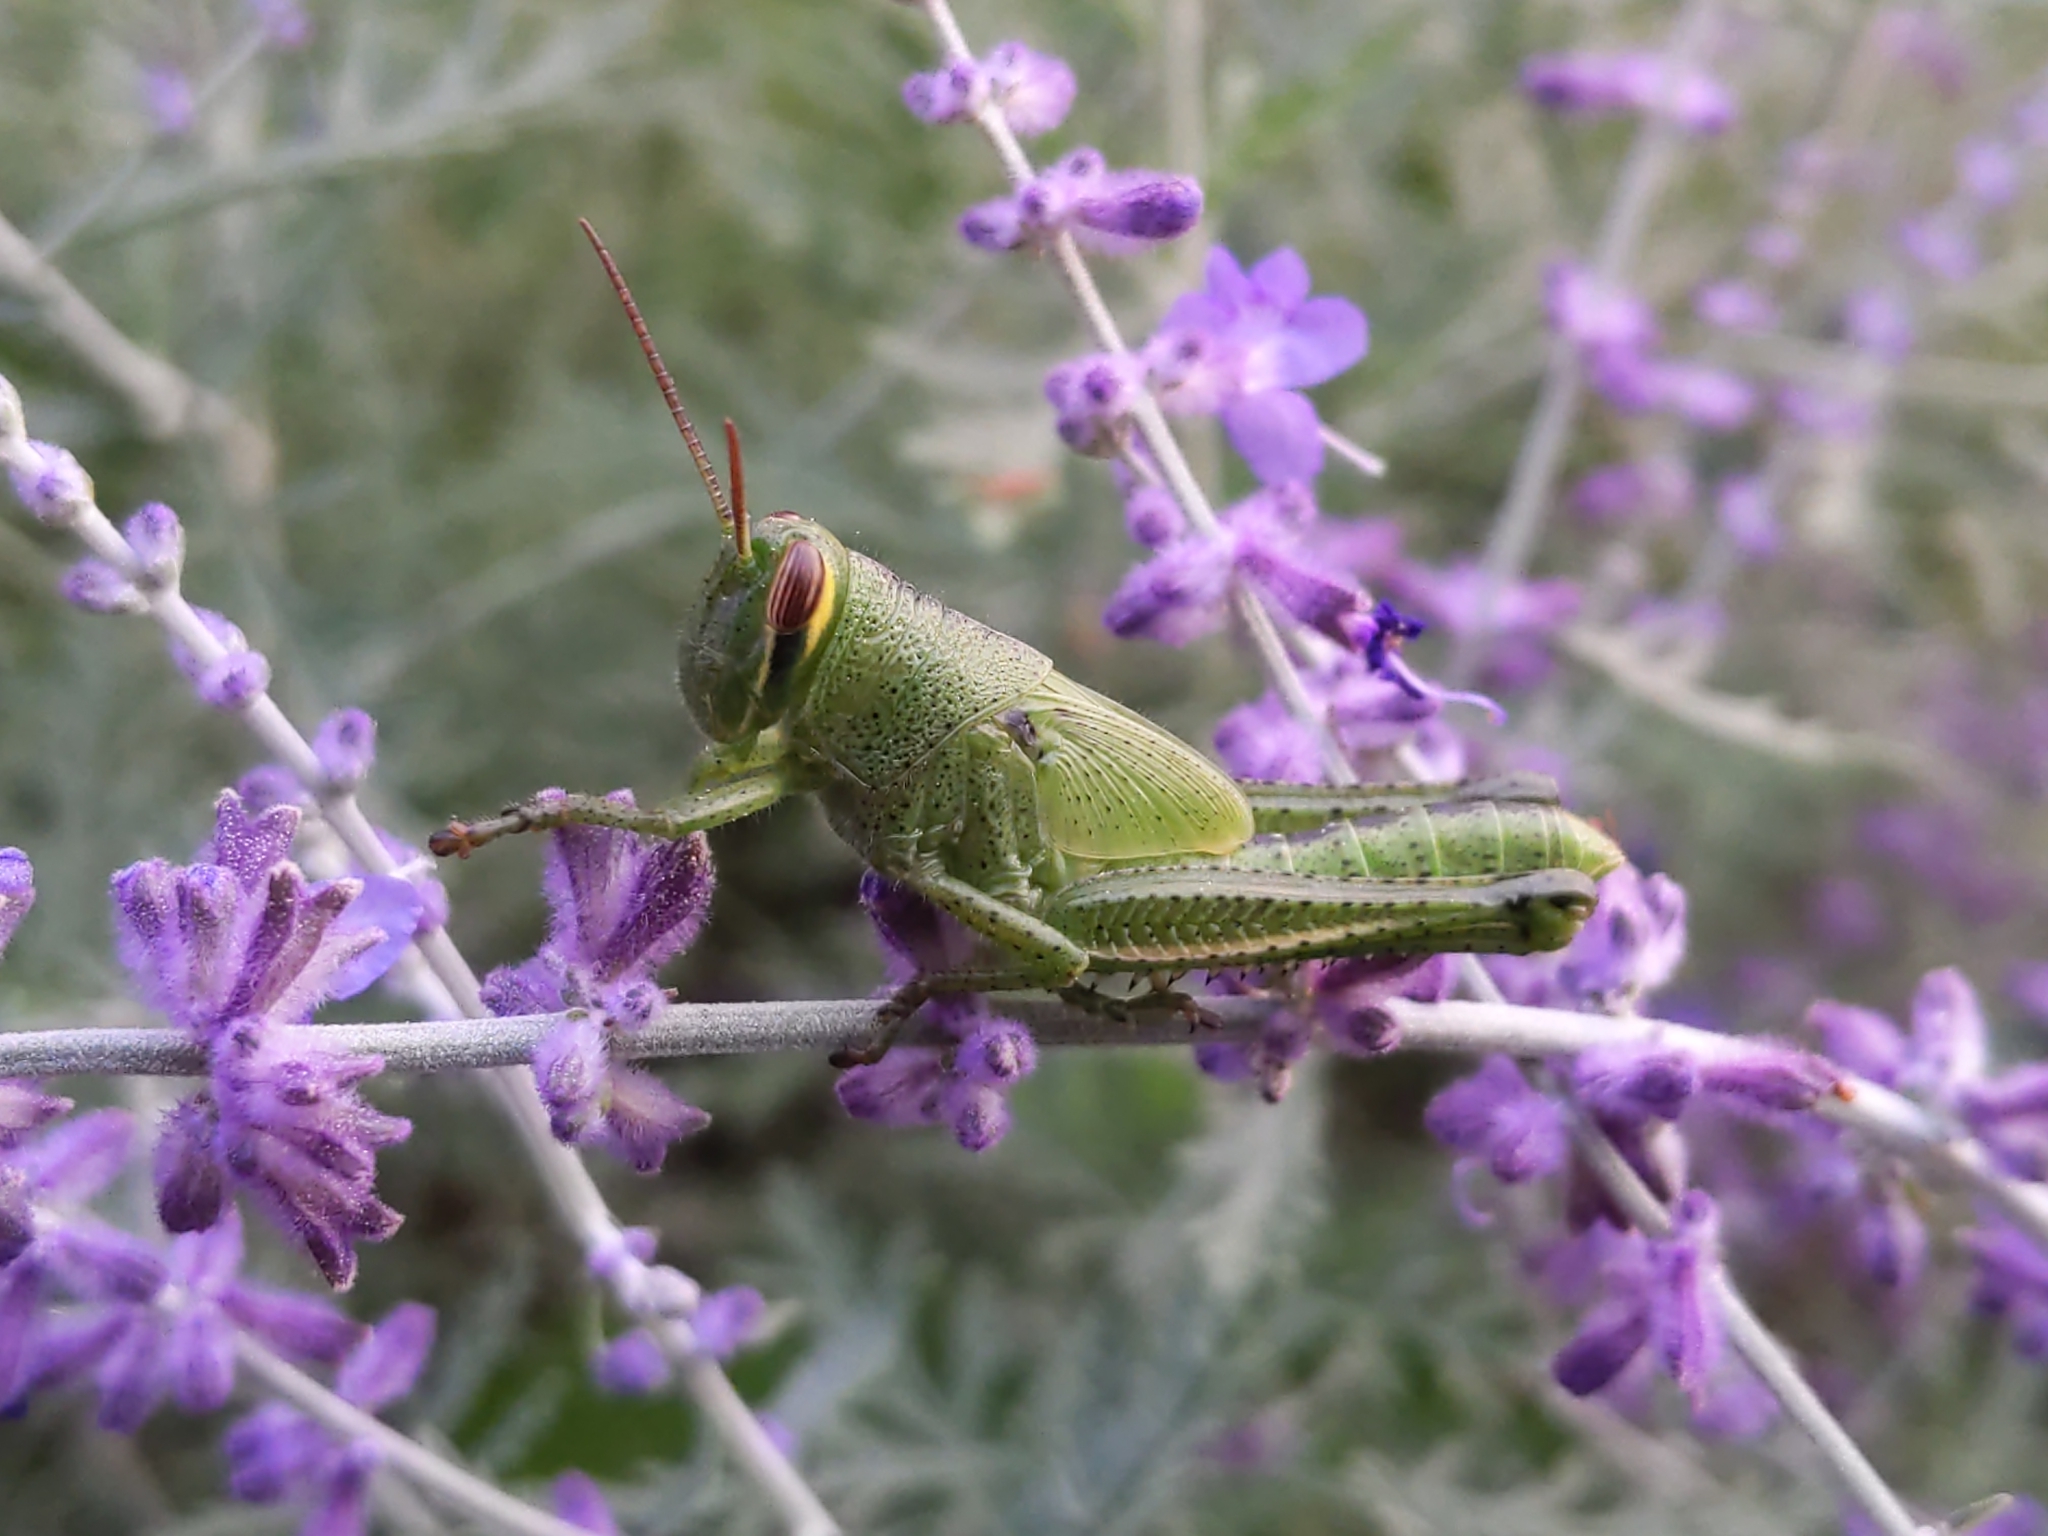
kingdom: Animalia
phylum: Arthropoda
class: Insecta
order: Orthoptera
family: Acrididae
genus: Schistocerca
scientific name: Schistocerca americana
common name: American bird locust
